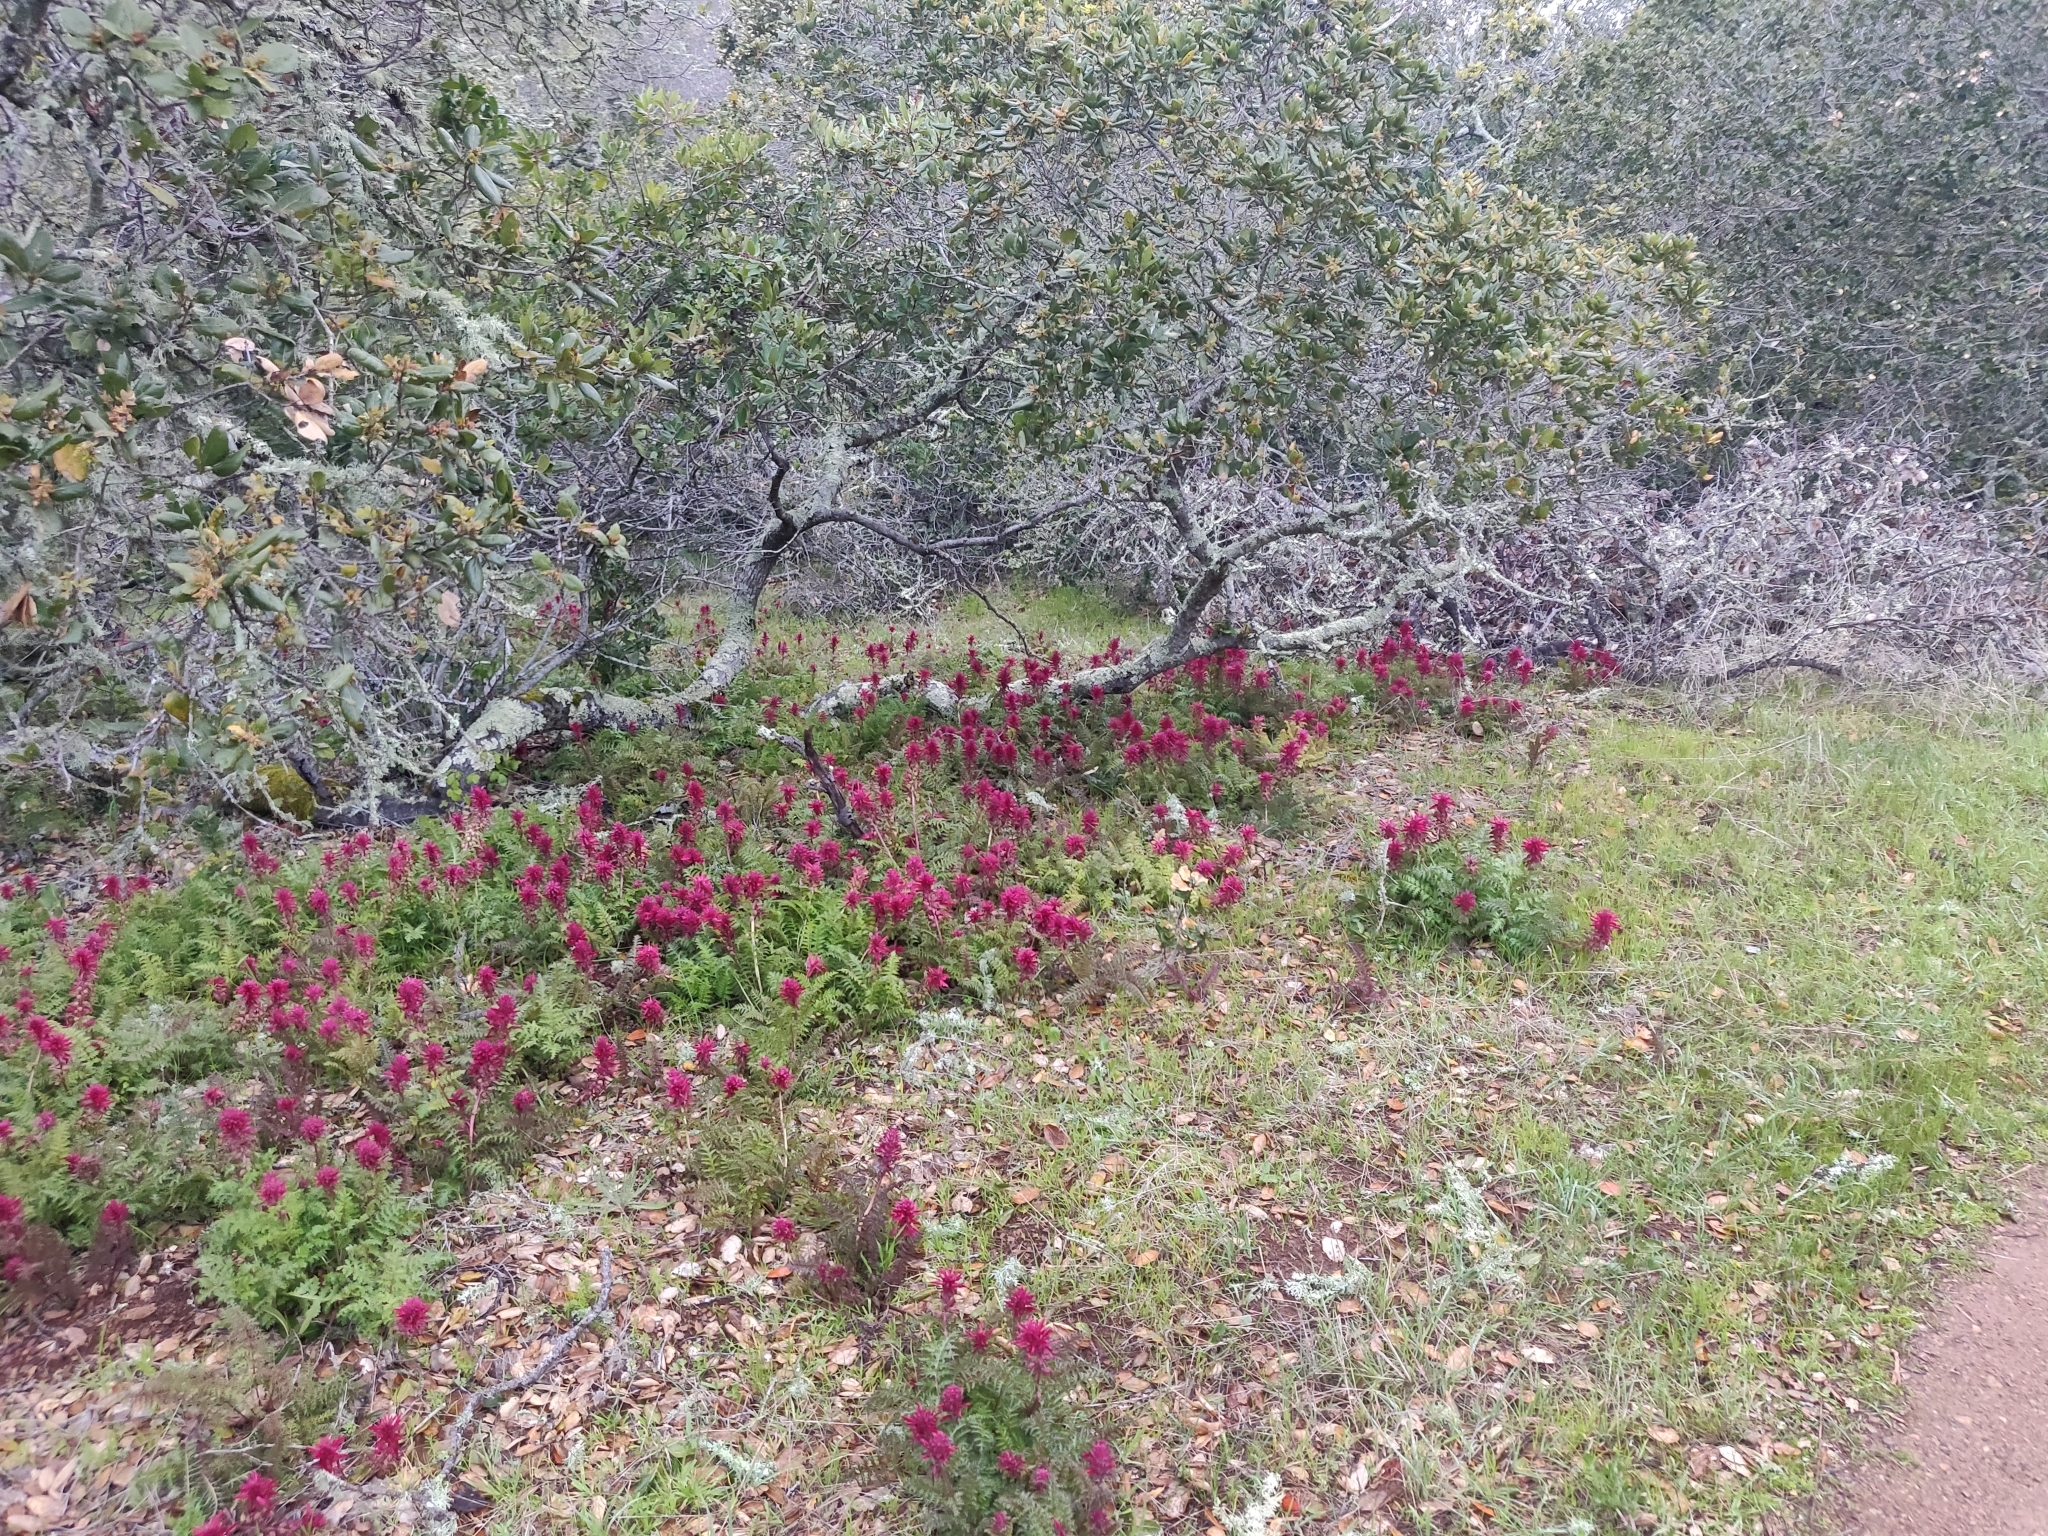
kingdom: Plantae
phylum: Tracheophyta
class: Magnoliopsida
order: Lamiales
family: Orobanchaceae
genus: Pedicularis
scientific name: Pedicularis densiflora
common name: Indian warrior
